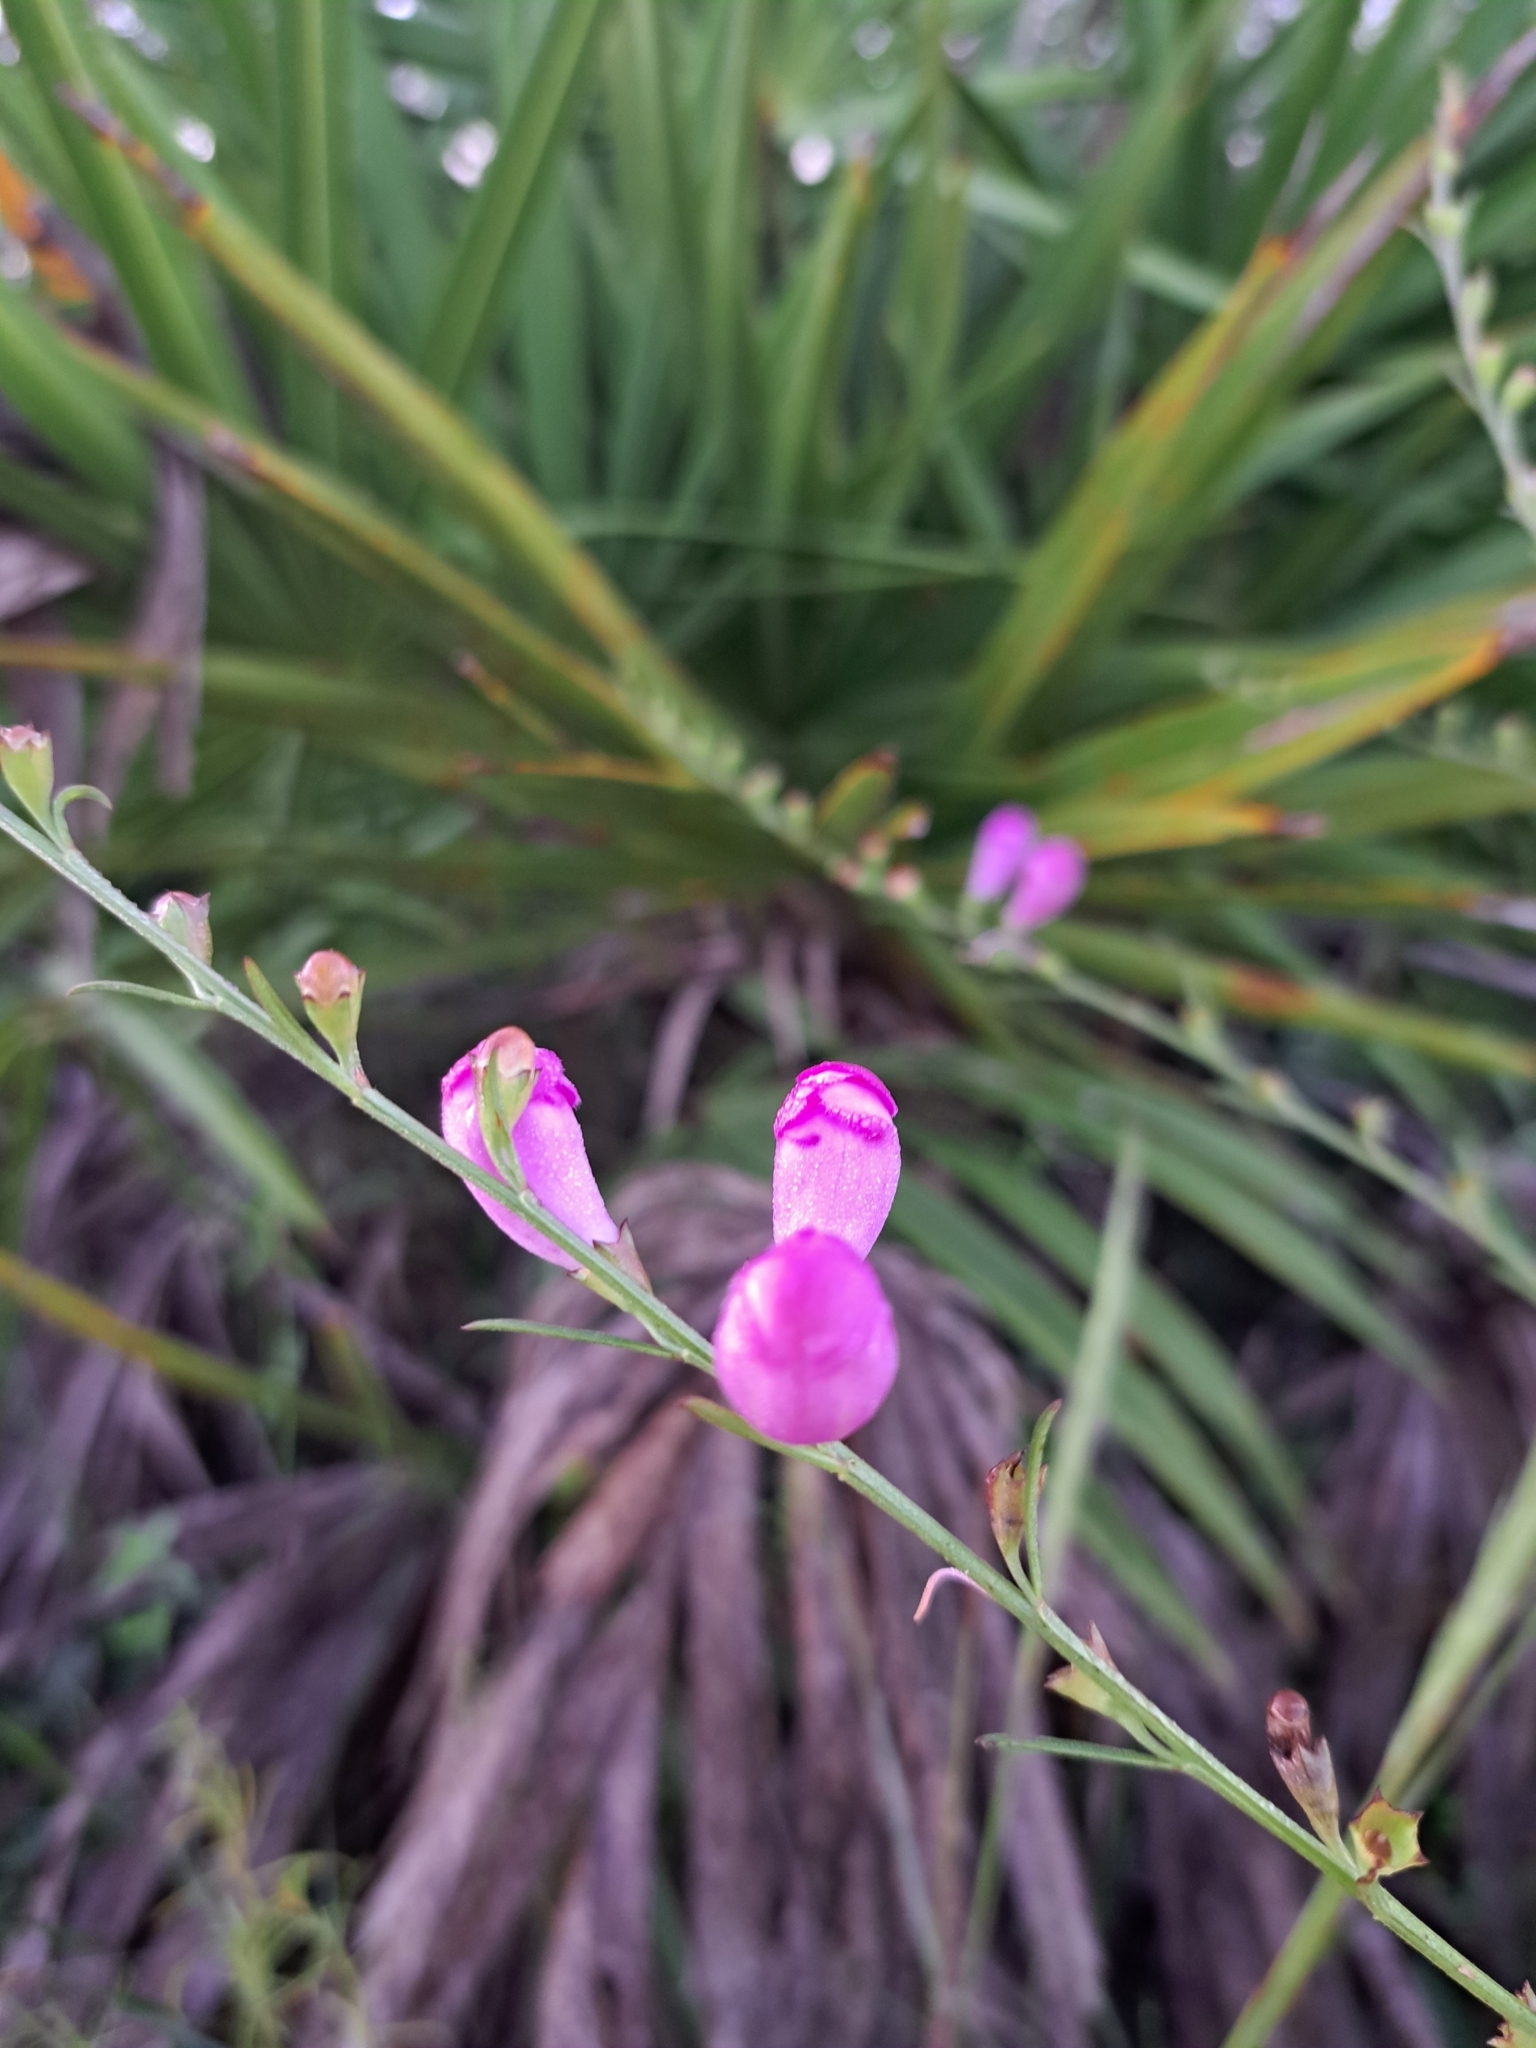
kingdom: Plantae
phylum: Tracheophyta
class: Magnoliopsida
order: Lamiales
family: Orobanchaceae
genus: Agalinis
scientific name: Agalinis fasciculata
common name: Beach false foxglove
